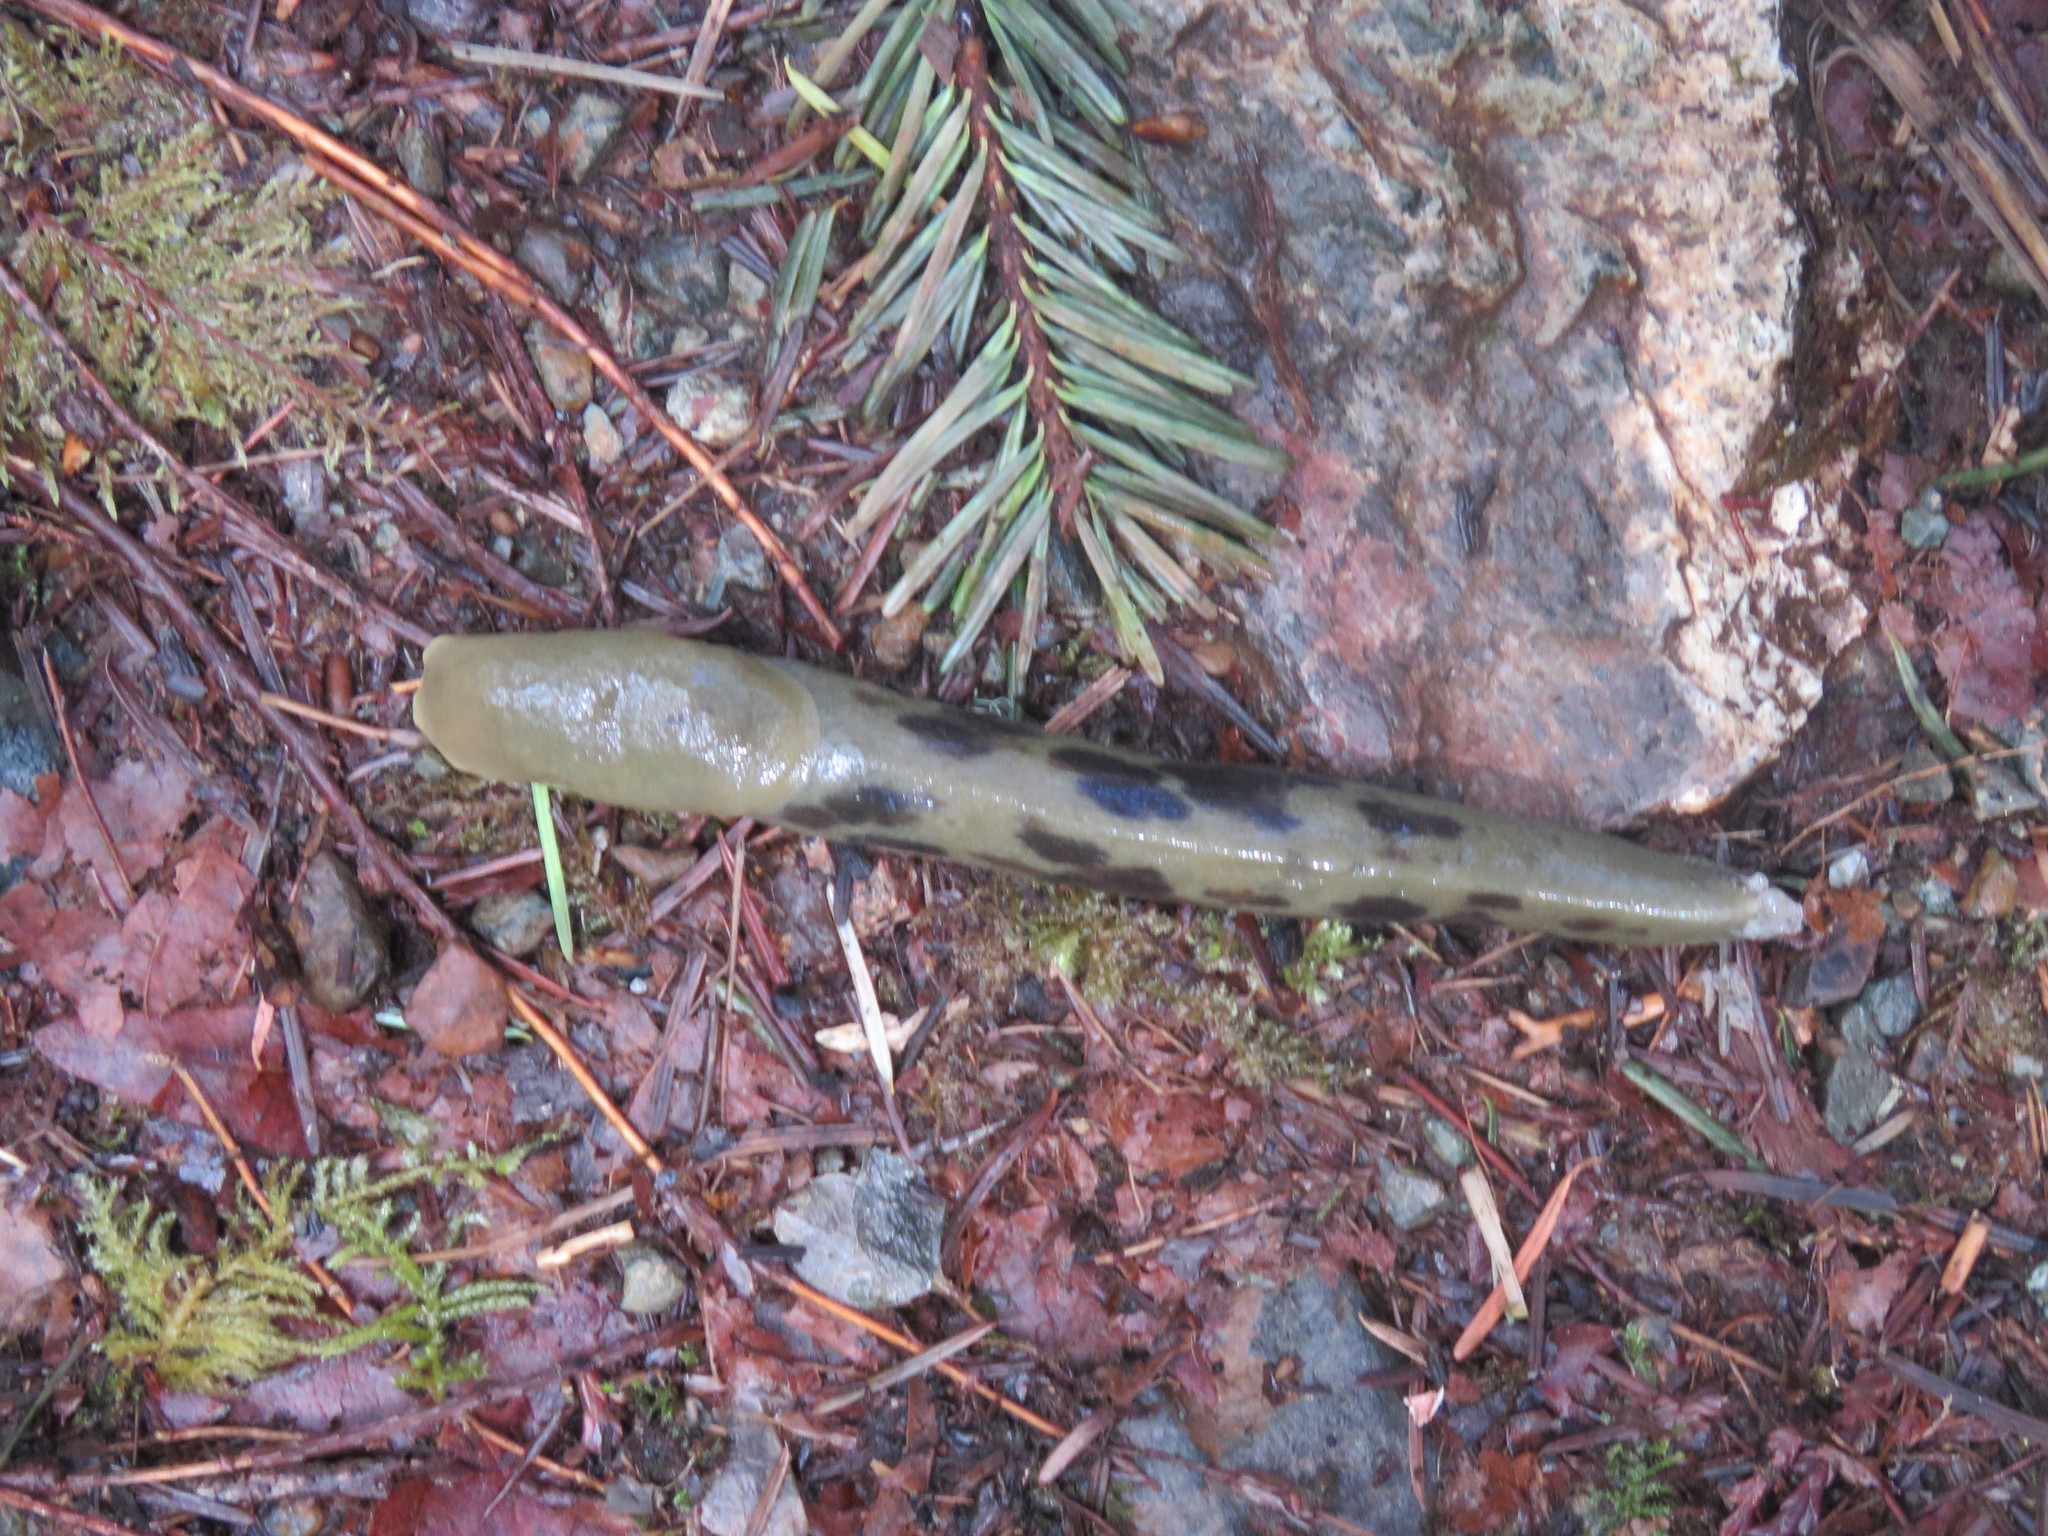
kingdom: Animalia
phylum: Mollusca
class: Gastropoda
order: Stylommatophora
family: Ariolimacidae
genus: Ariolimax
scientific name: Ariolimax columbianus
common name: Pacific banana slug
